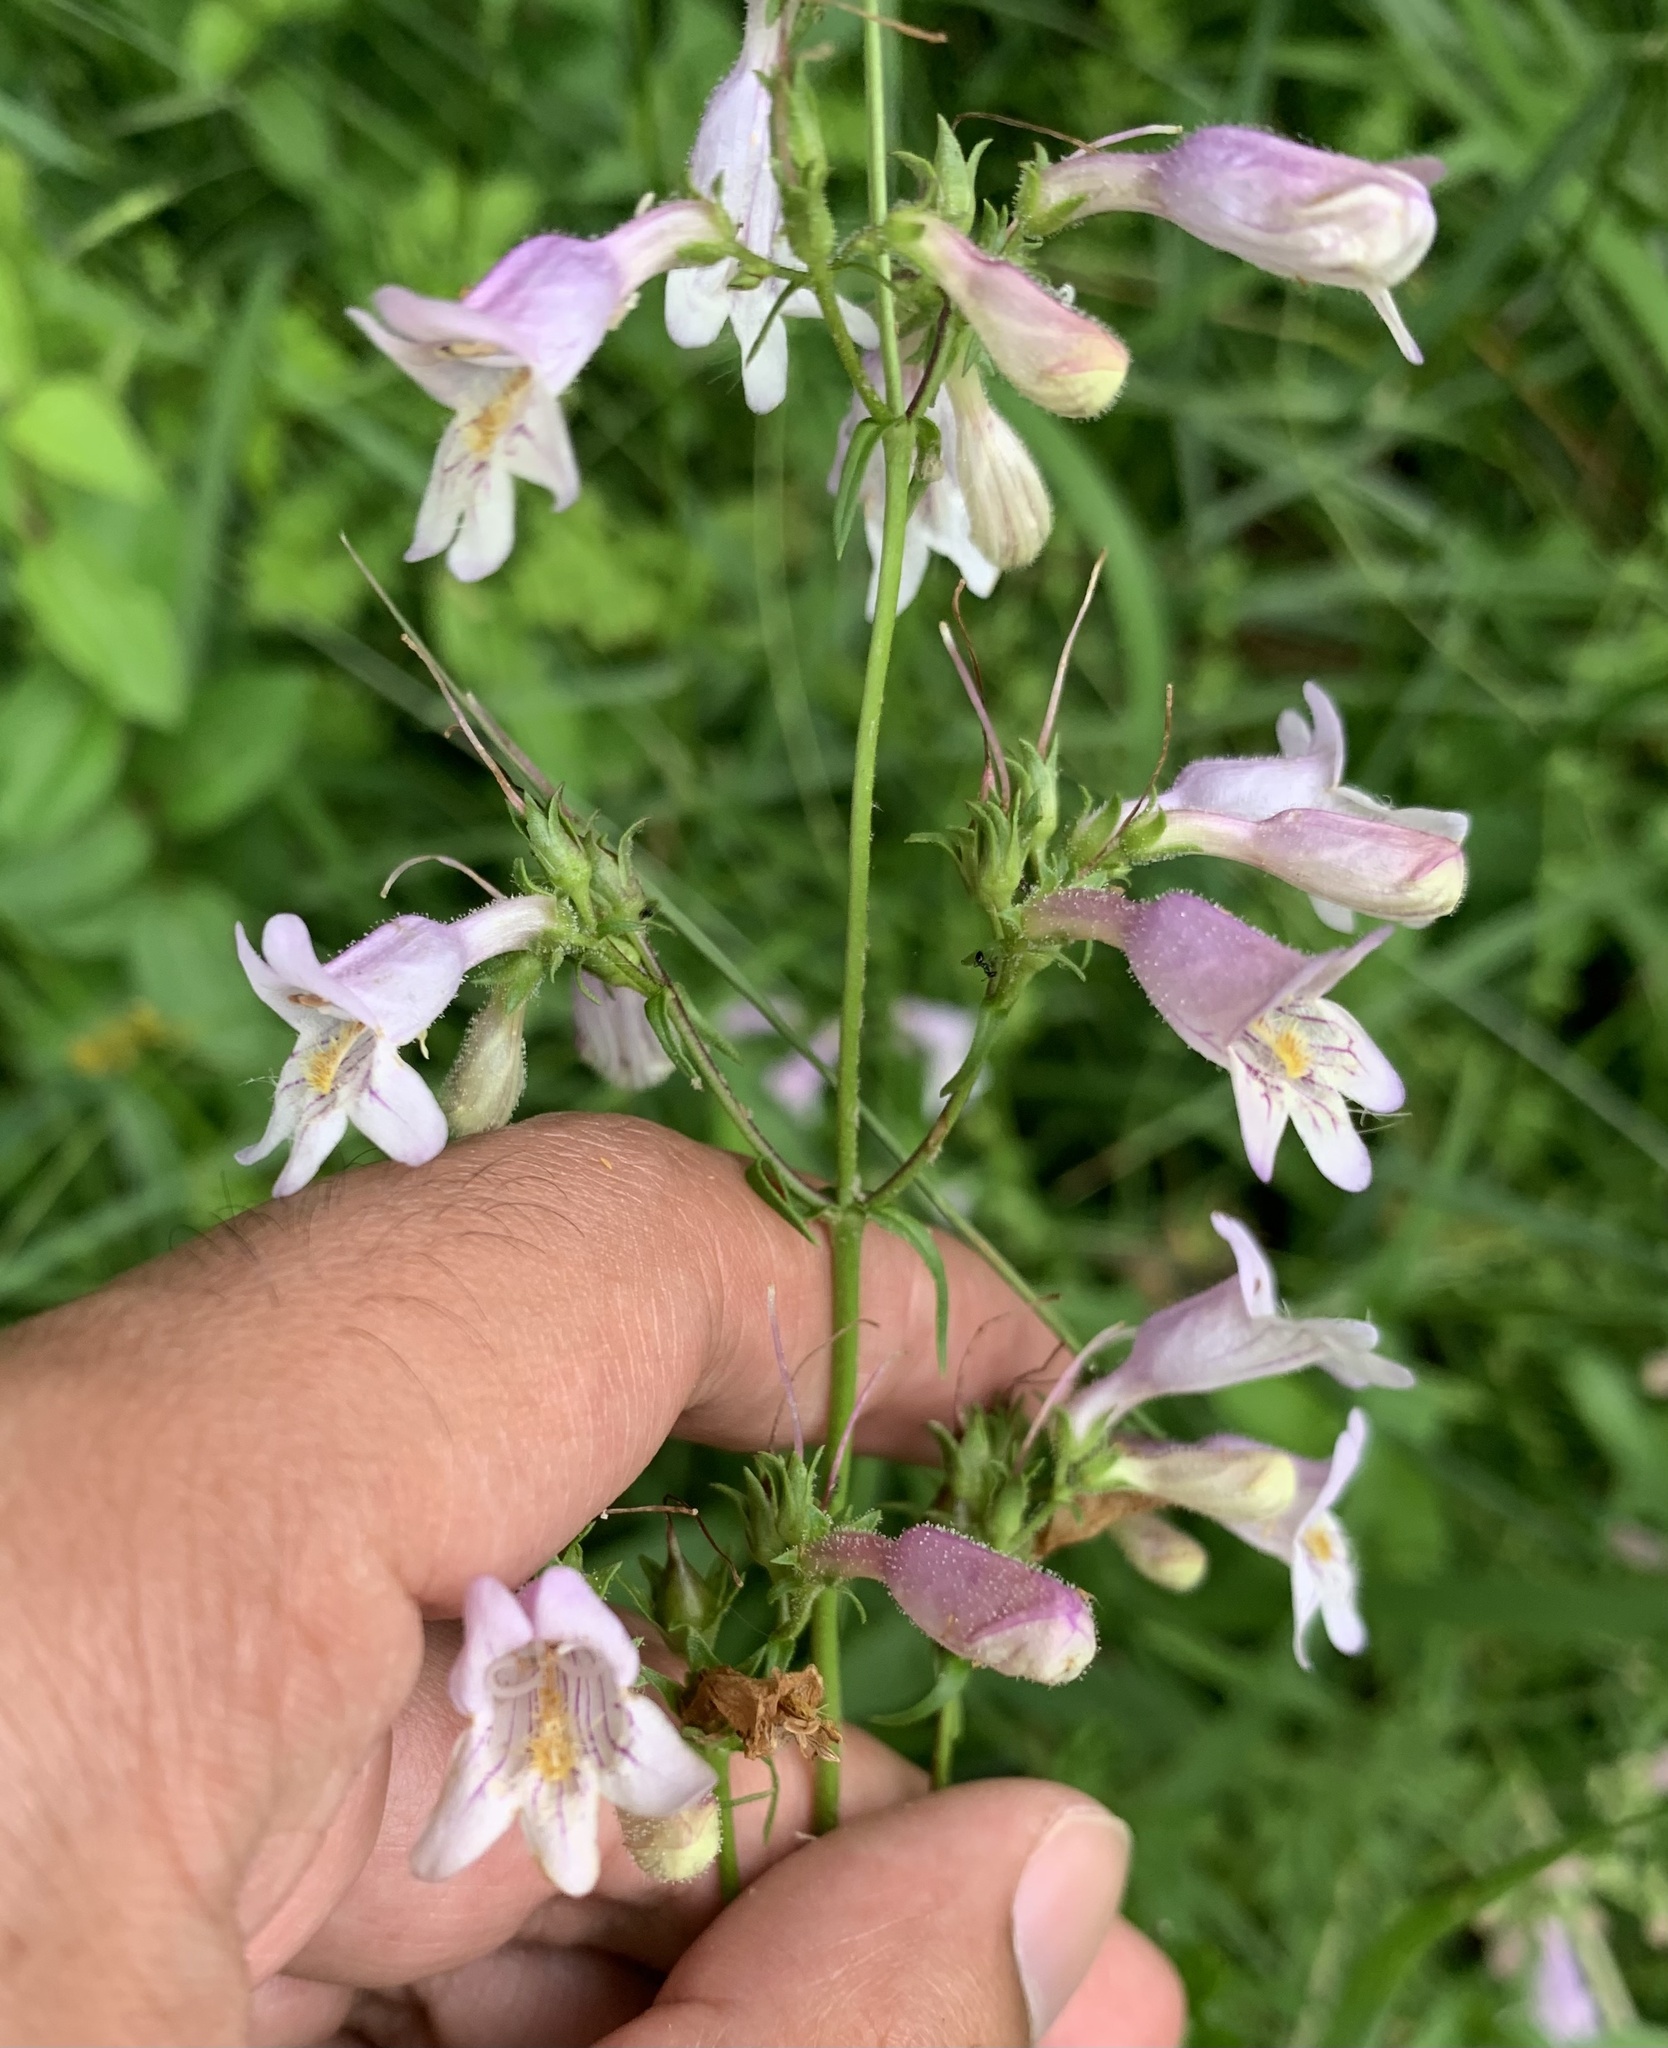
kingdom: Plantae
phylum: Tracheophyta
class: Magnoliopsida
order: Lamiales
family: Plantaginaceae
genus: Penstemon
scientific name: Penstemon laevigatus
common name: Eastern beardtongue
